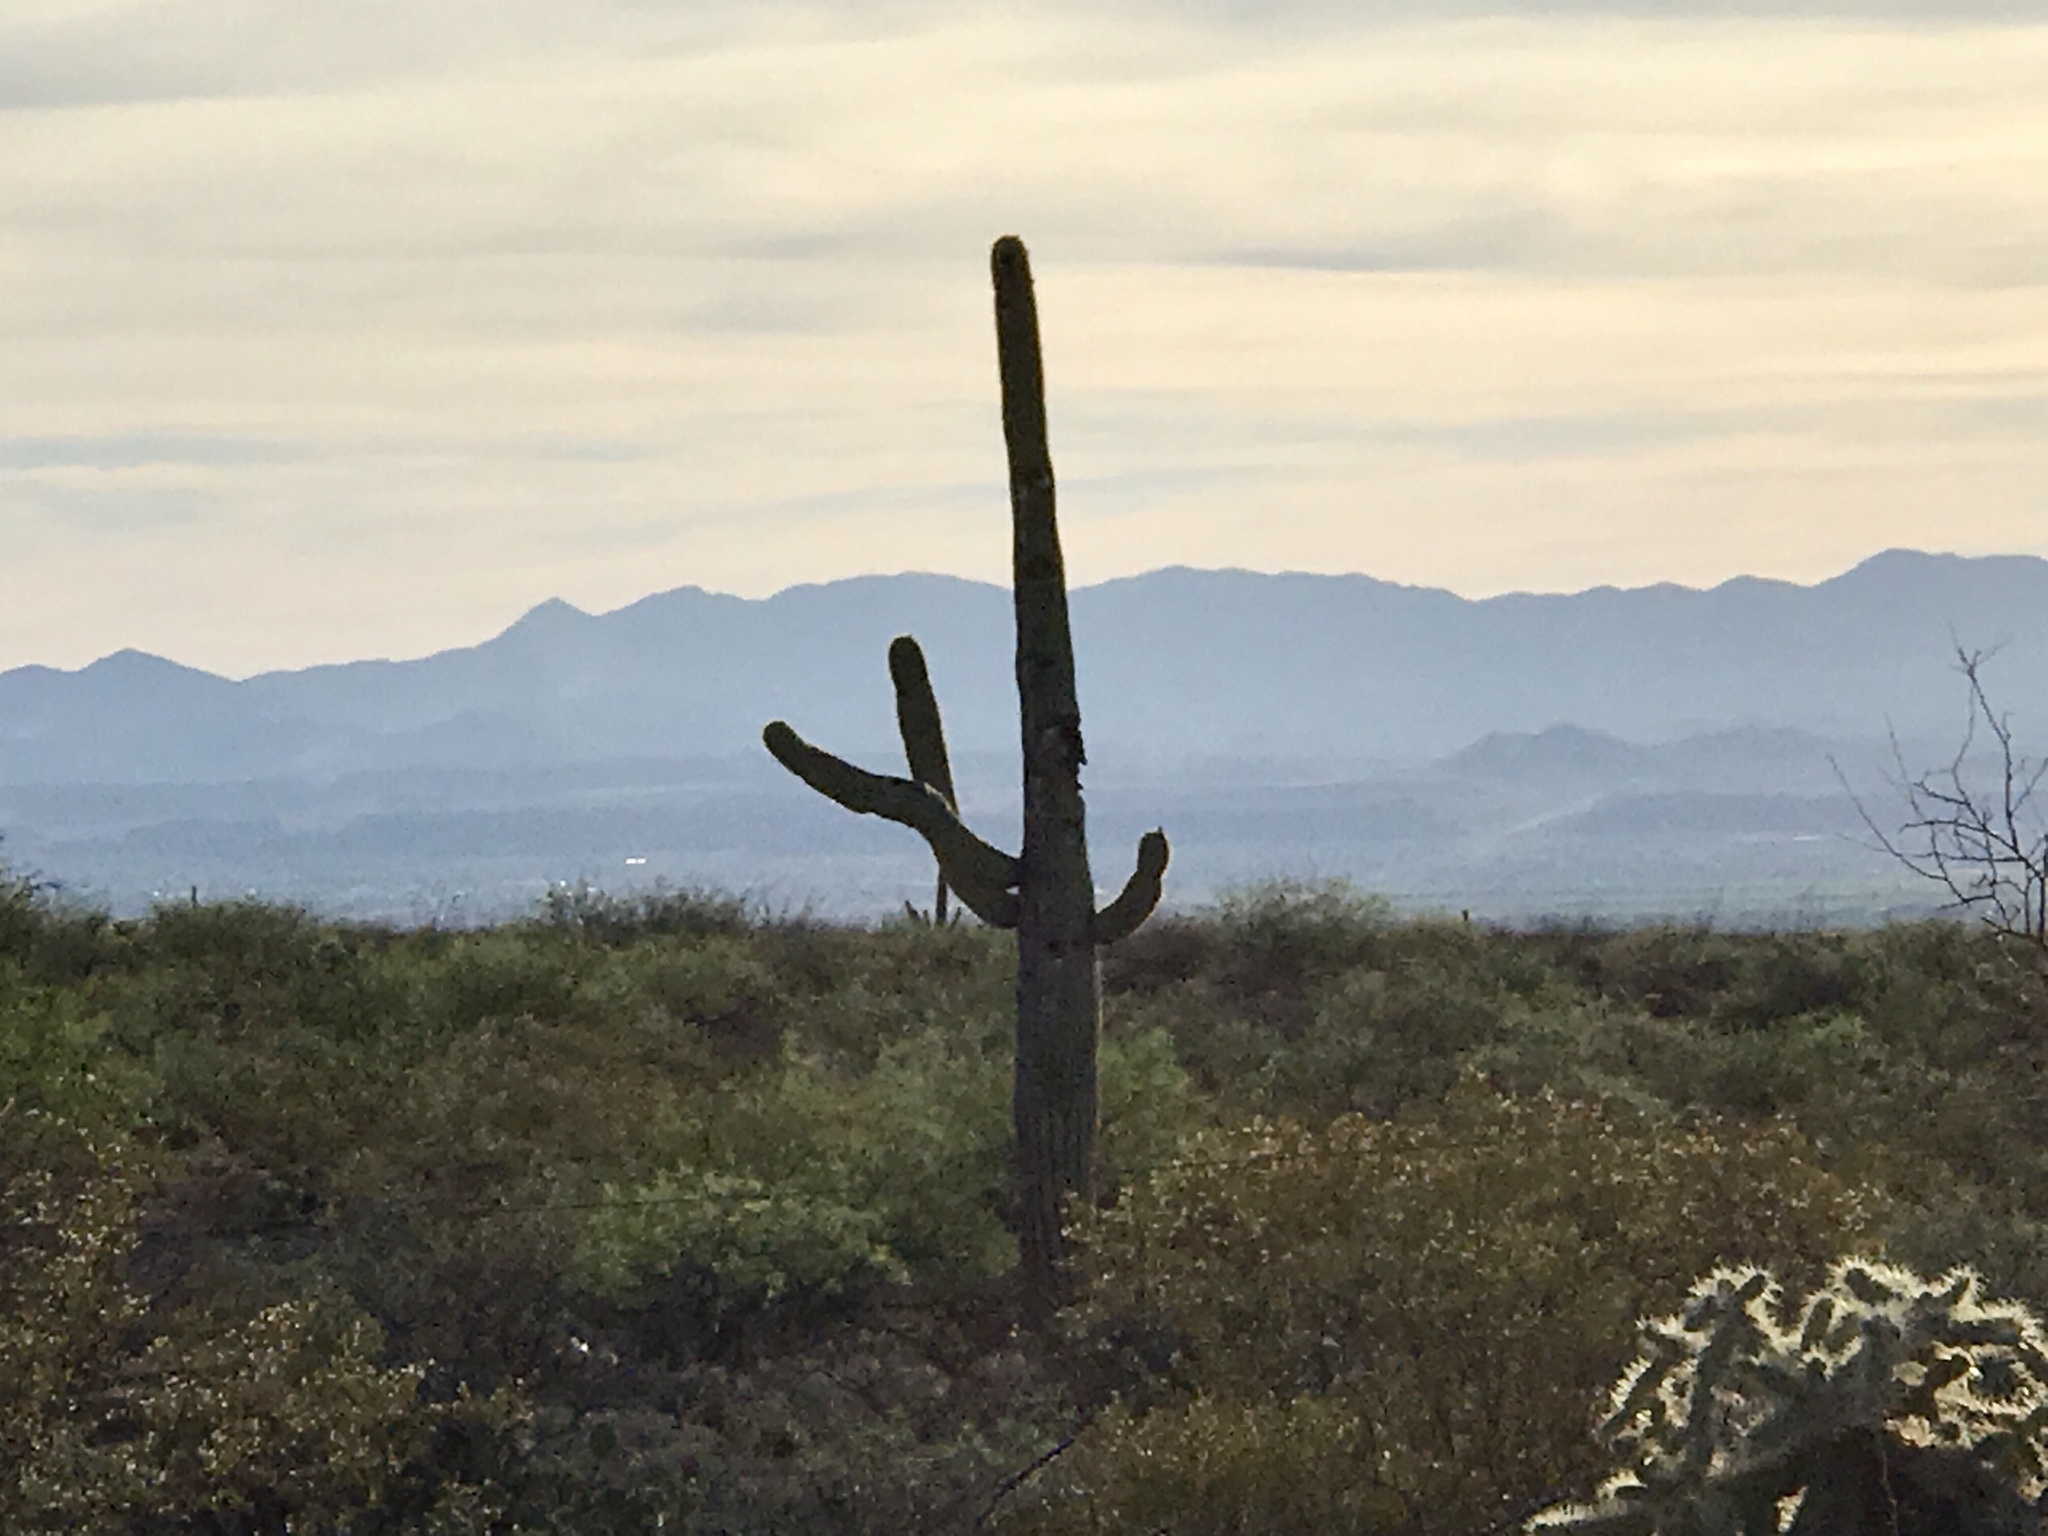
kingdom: Plantae
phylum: Tracheophyta
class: Magnoliopsida
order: Caryophyllales
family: Cactaceae
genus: Carnegiea
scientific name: Carnegiea gigantea
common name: Saguaro
